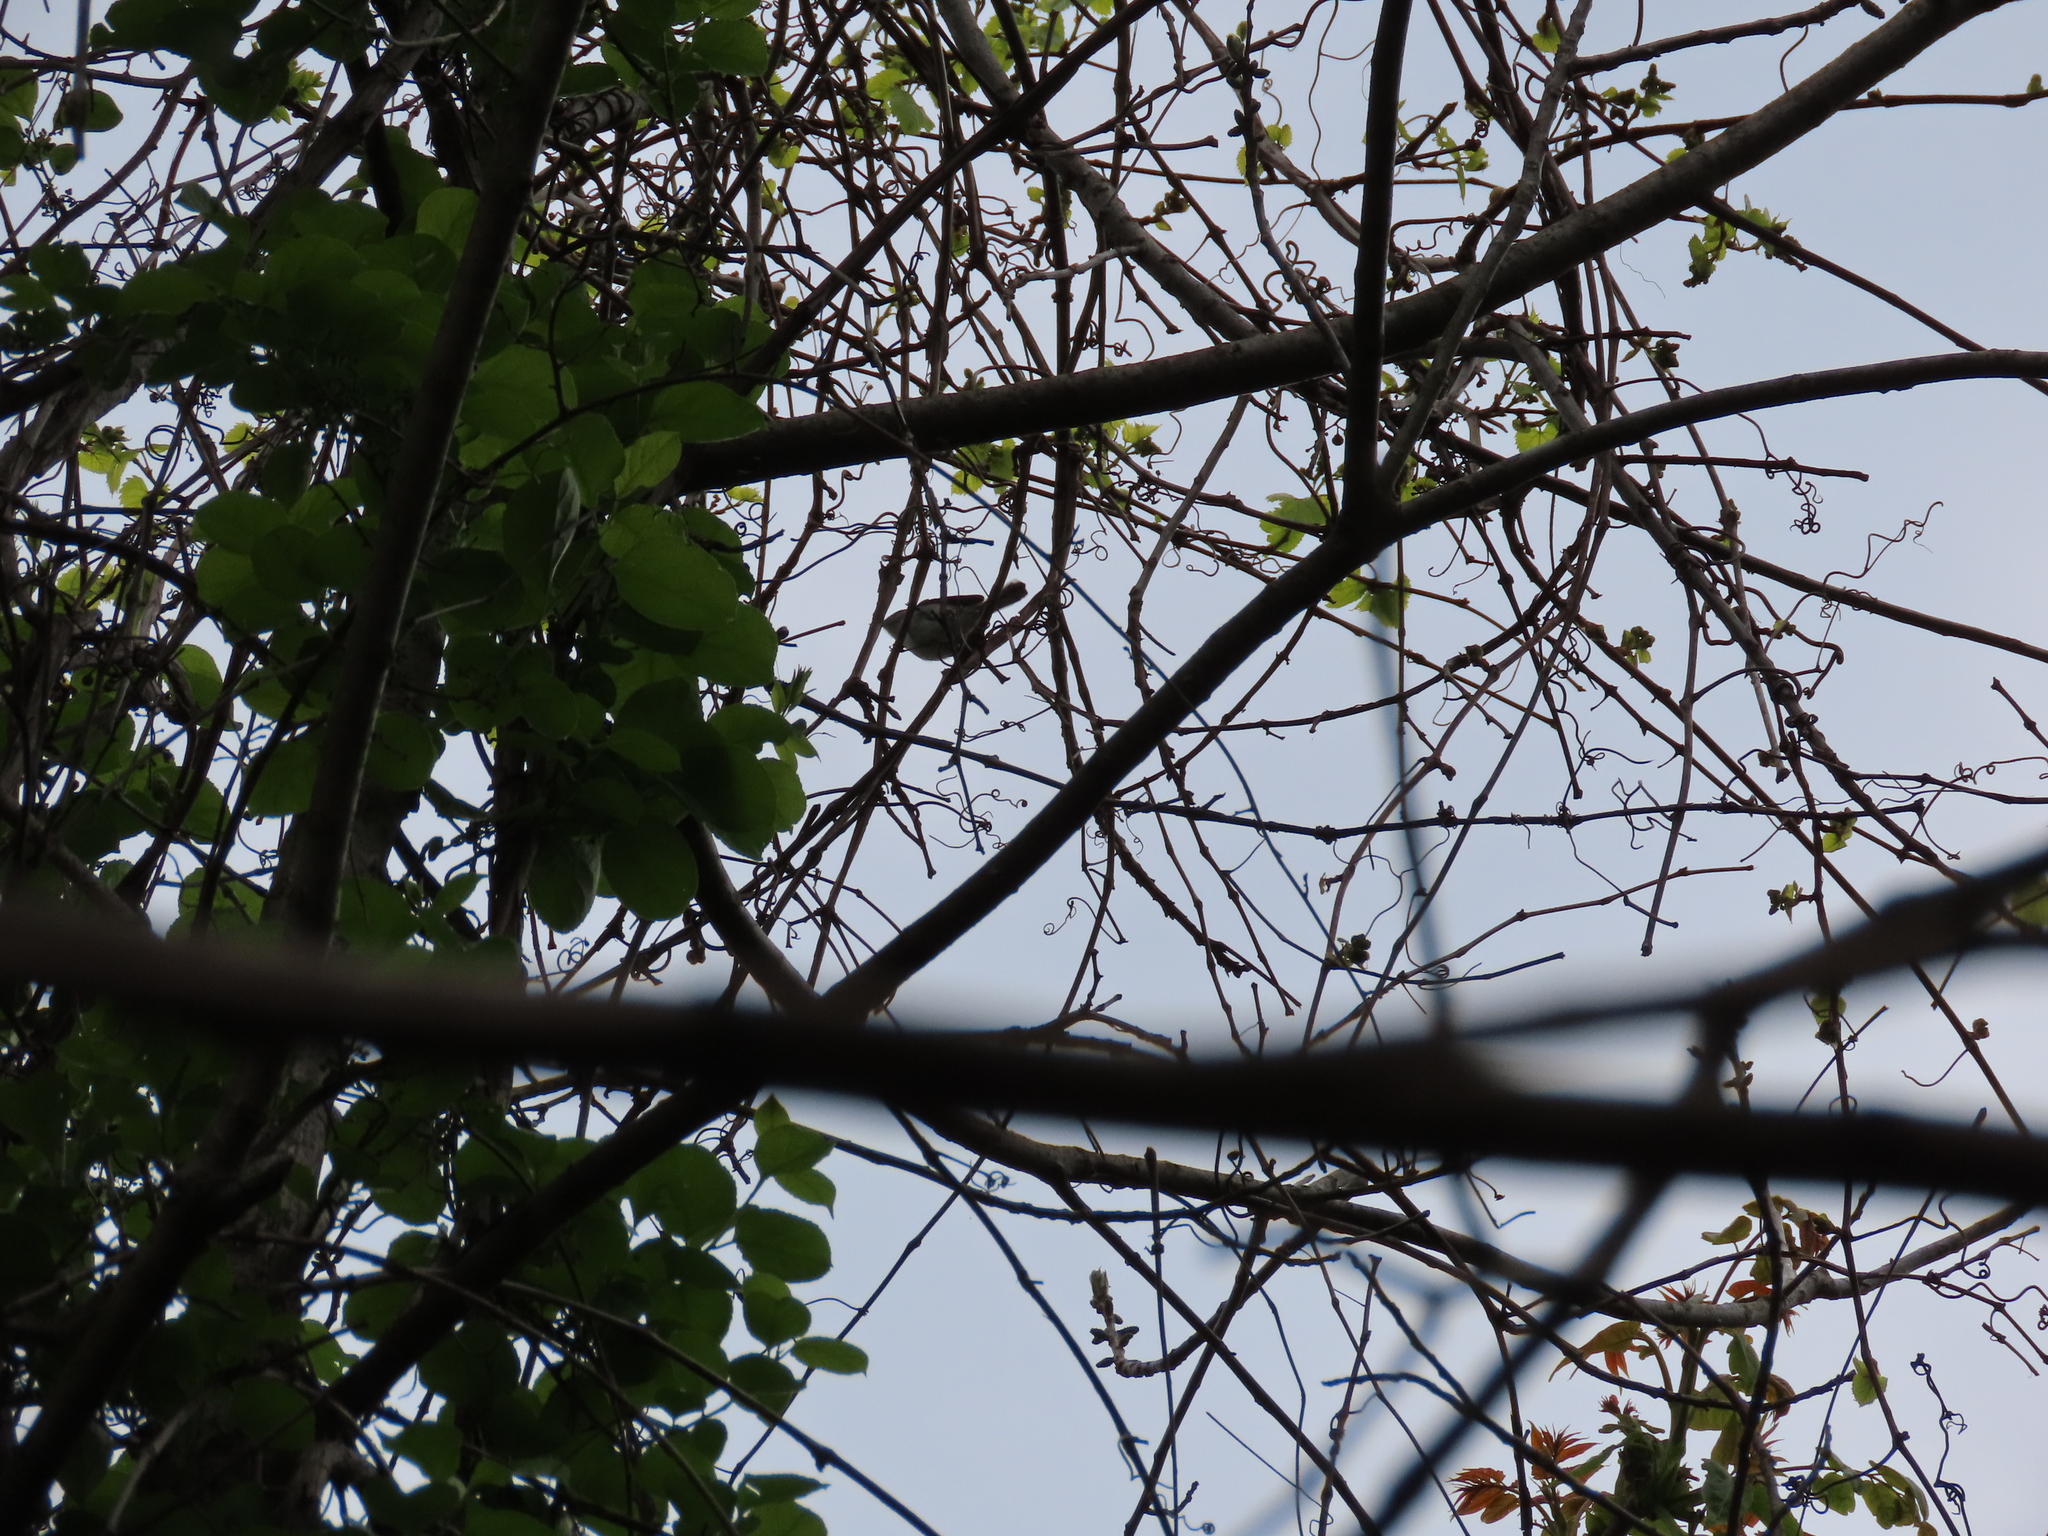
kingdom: Animalia
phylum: Chordata
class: Aves
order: Passeriformes
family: Vireonidae
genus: Vireo
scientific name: Vireo griseus
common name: White-eyed vireo
